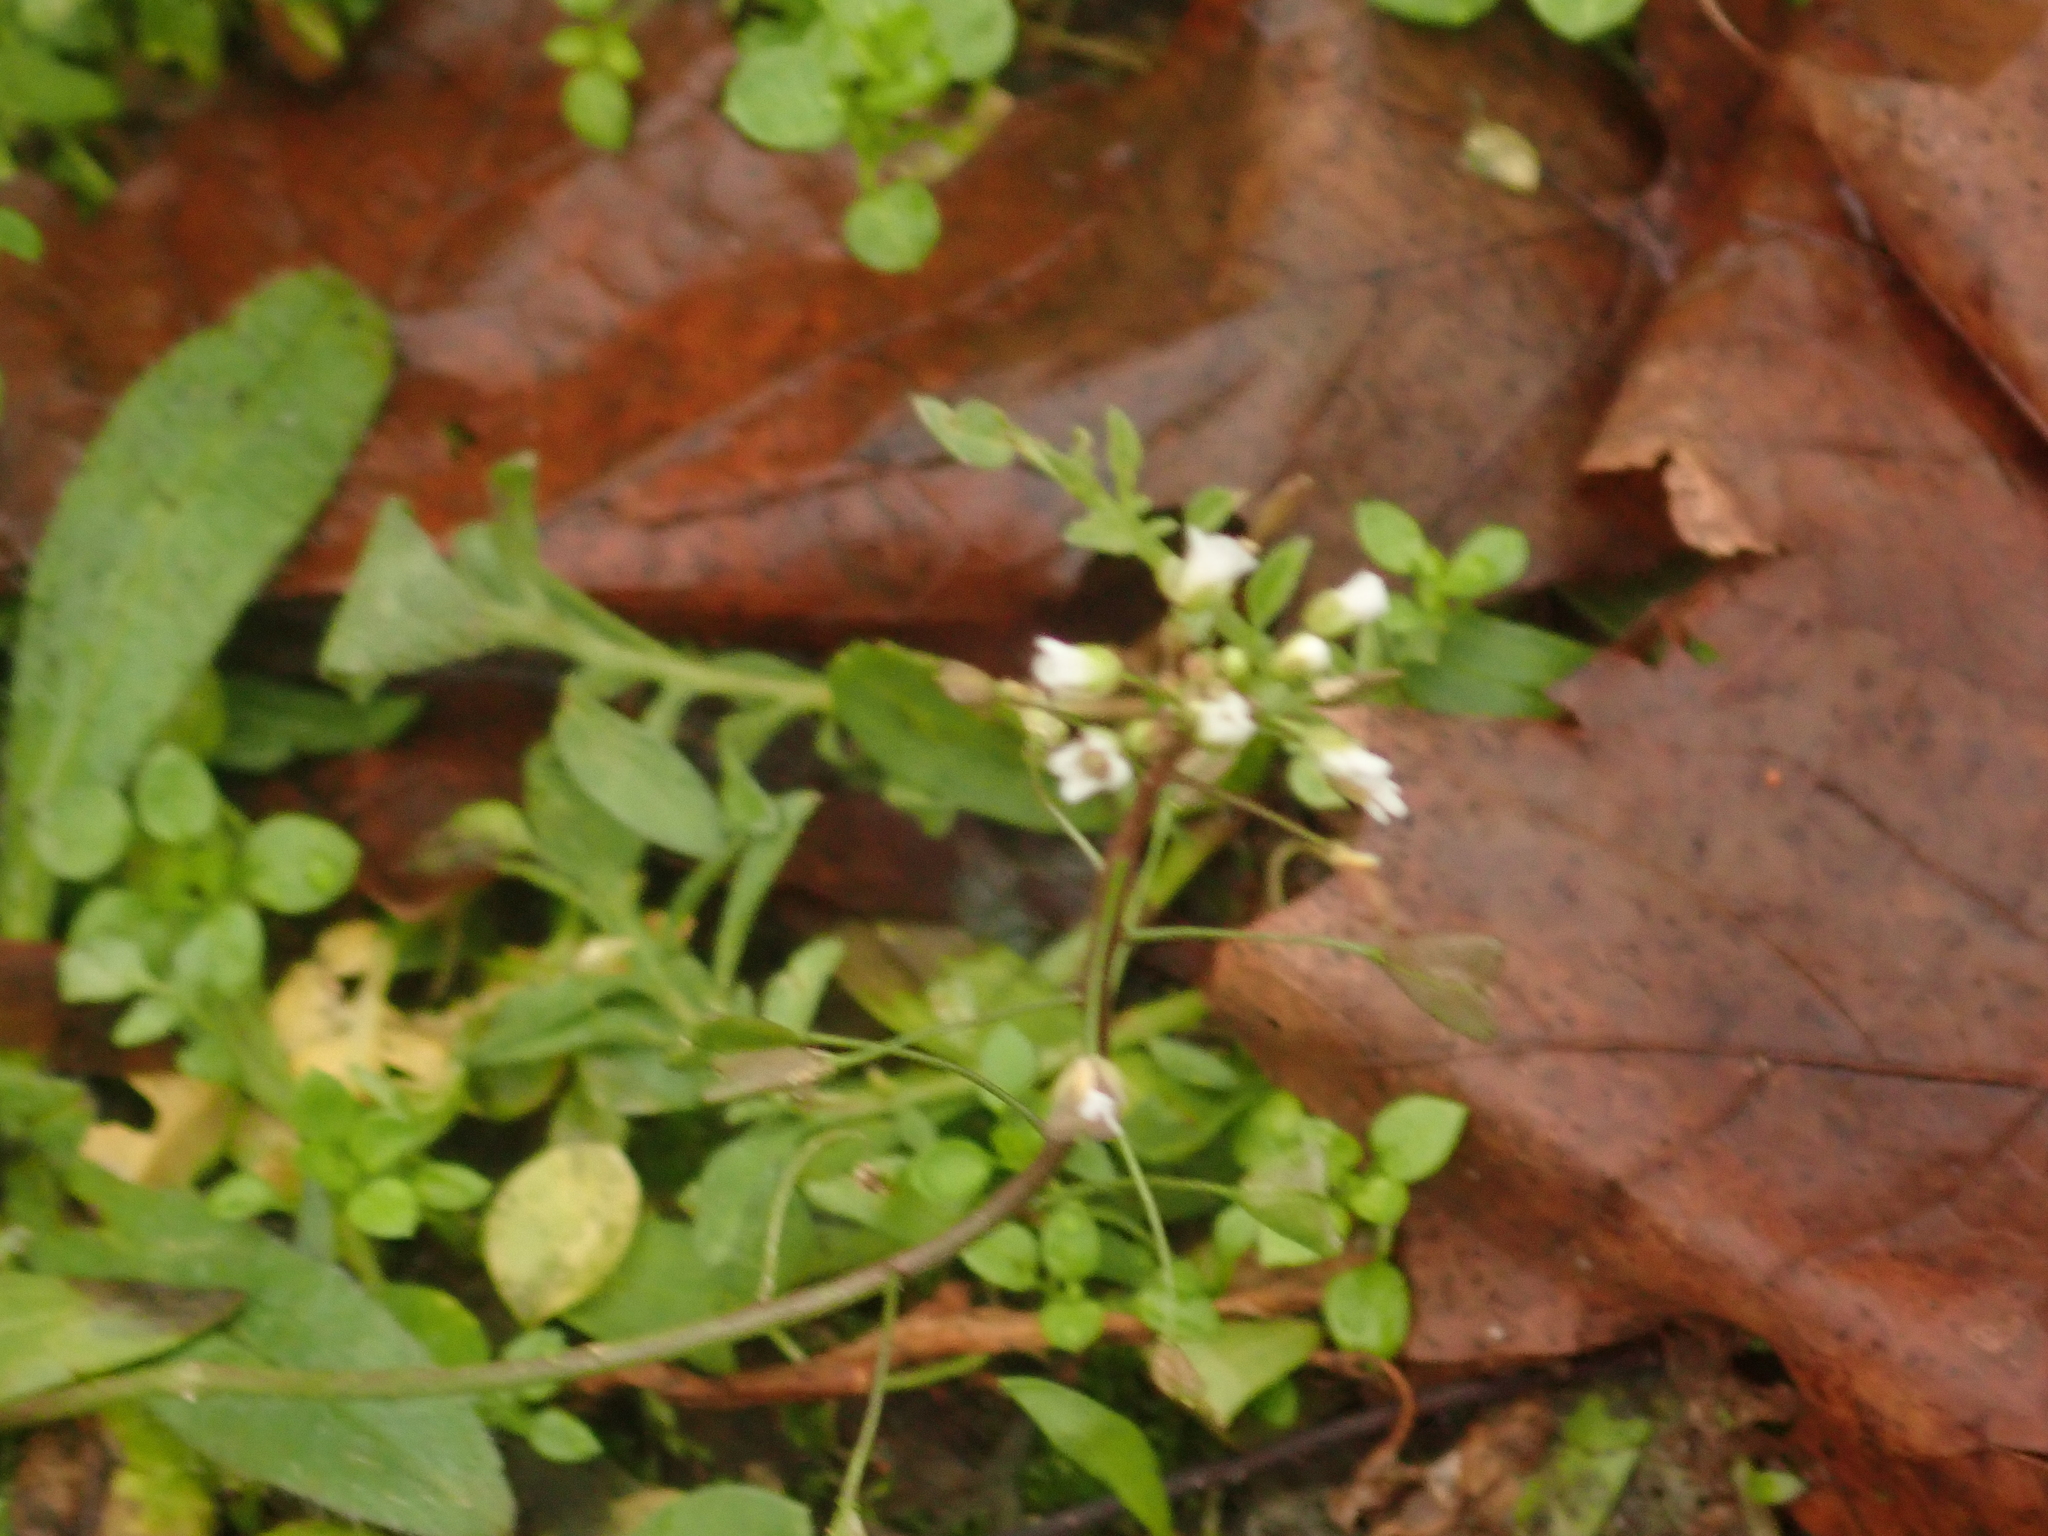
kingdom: Plantae
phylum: Tracheophyta
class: Magnoliopsida
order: Brassicales
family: Brassicaceae
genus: Capsella
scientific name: Capsella bursa-pastoris
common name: Shepherd's purse
